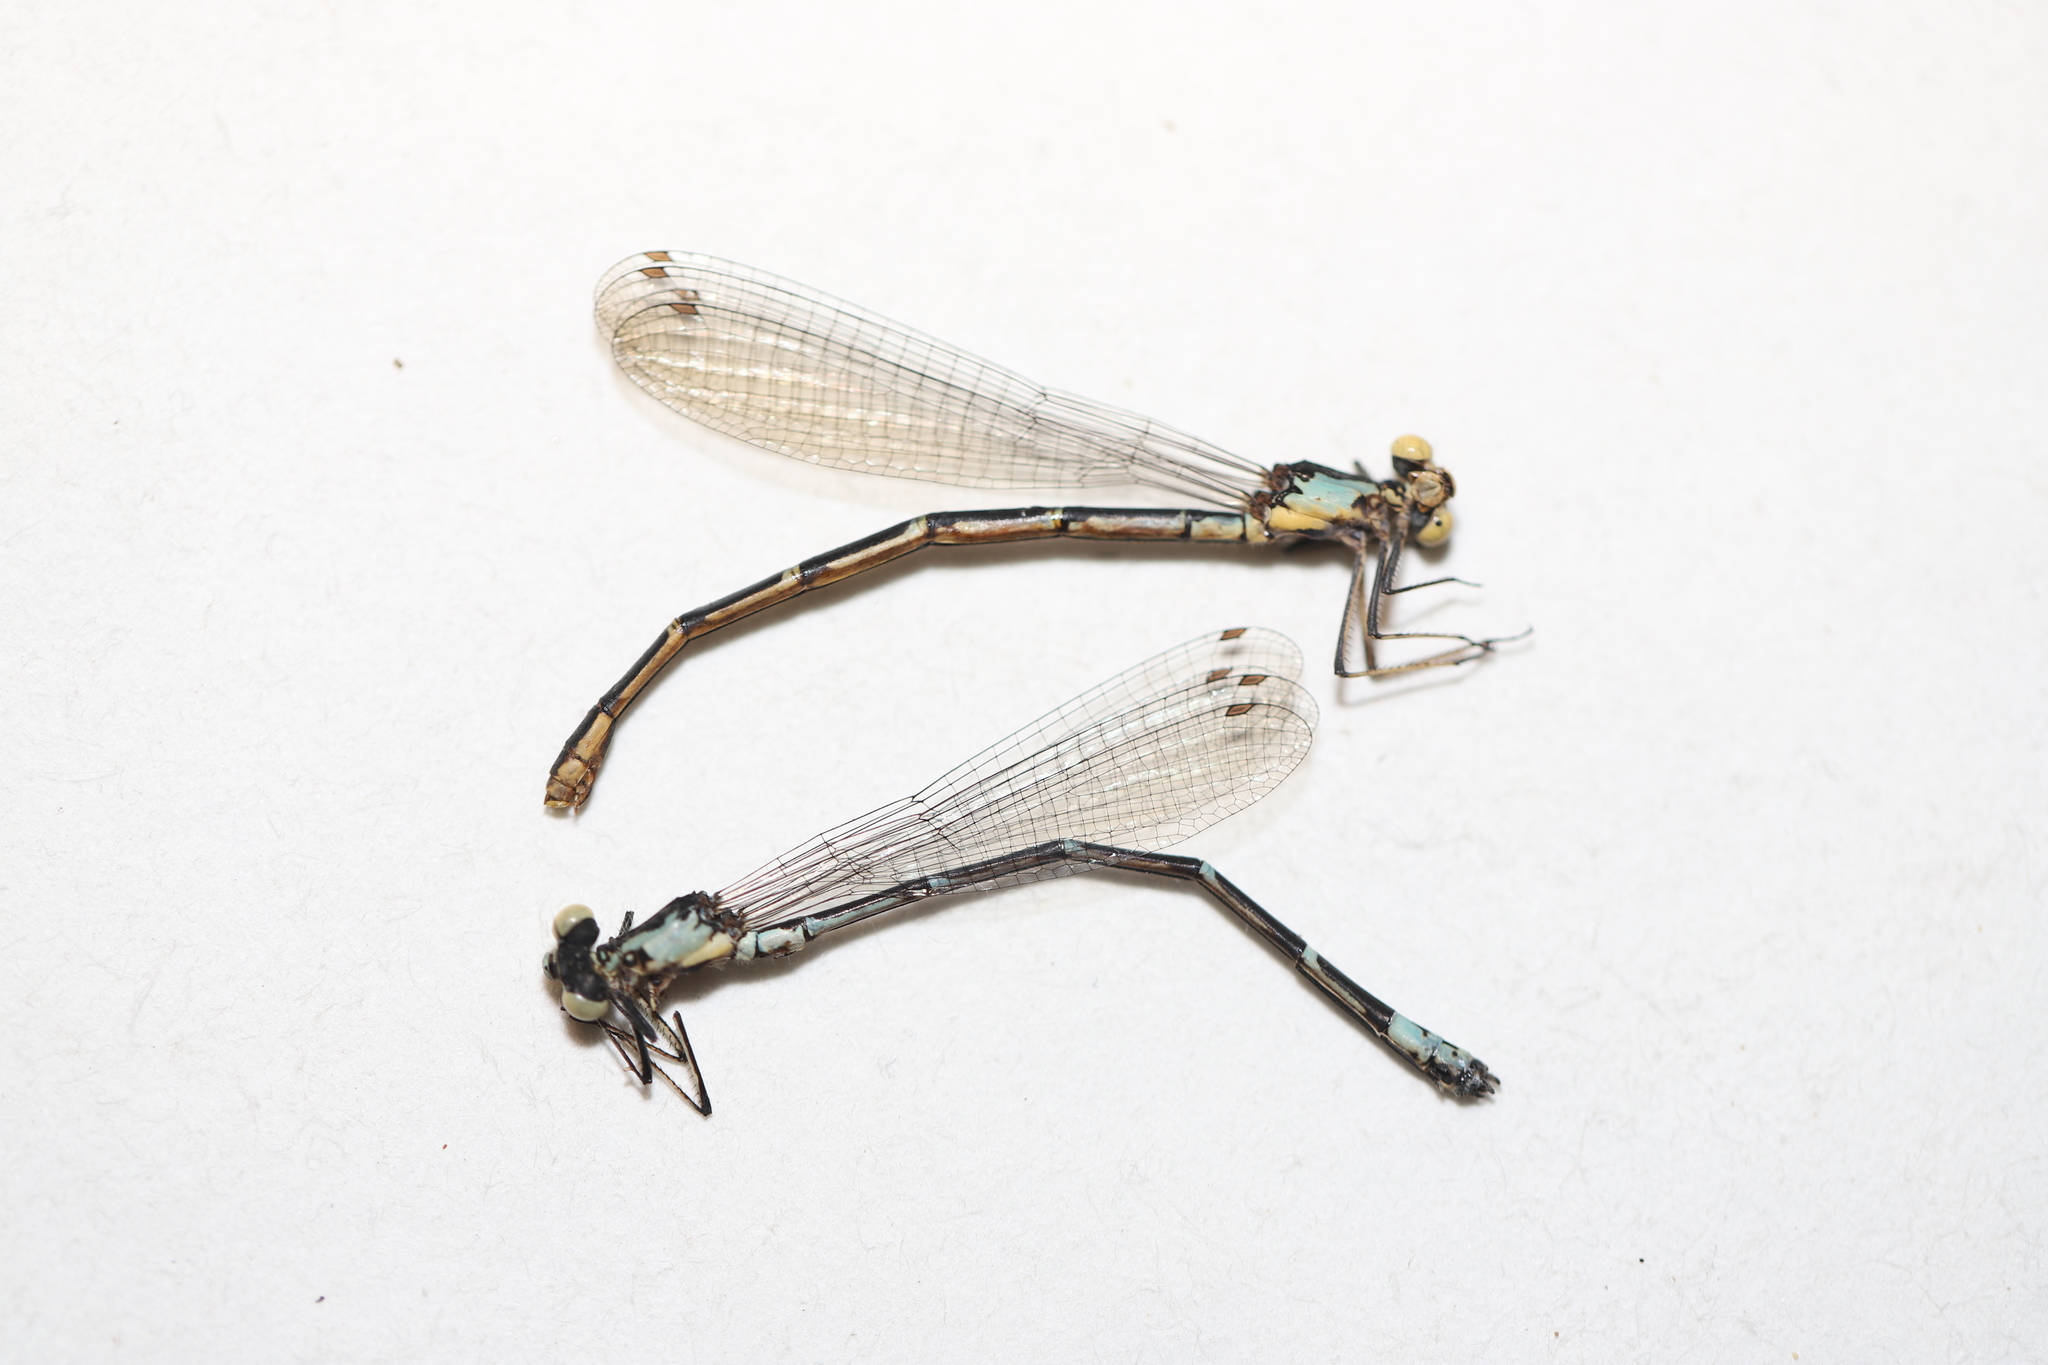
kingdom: Animalia
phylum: Arthropoda
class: Insecta
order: Odonata
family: Coenagrionidae
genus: Chromagrion
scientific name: Chromagrion conditum
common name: Aurora damsel
